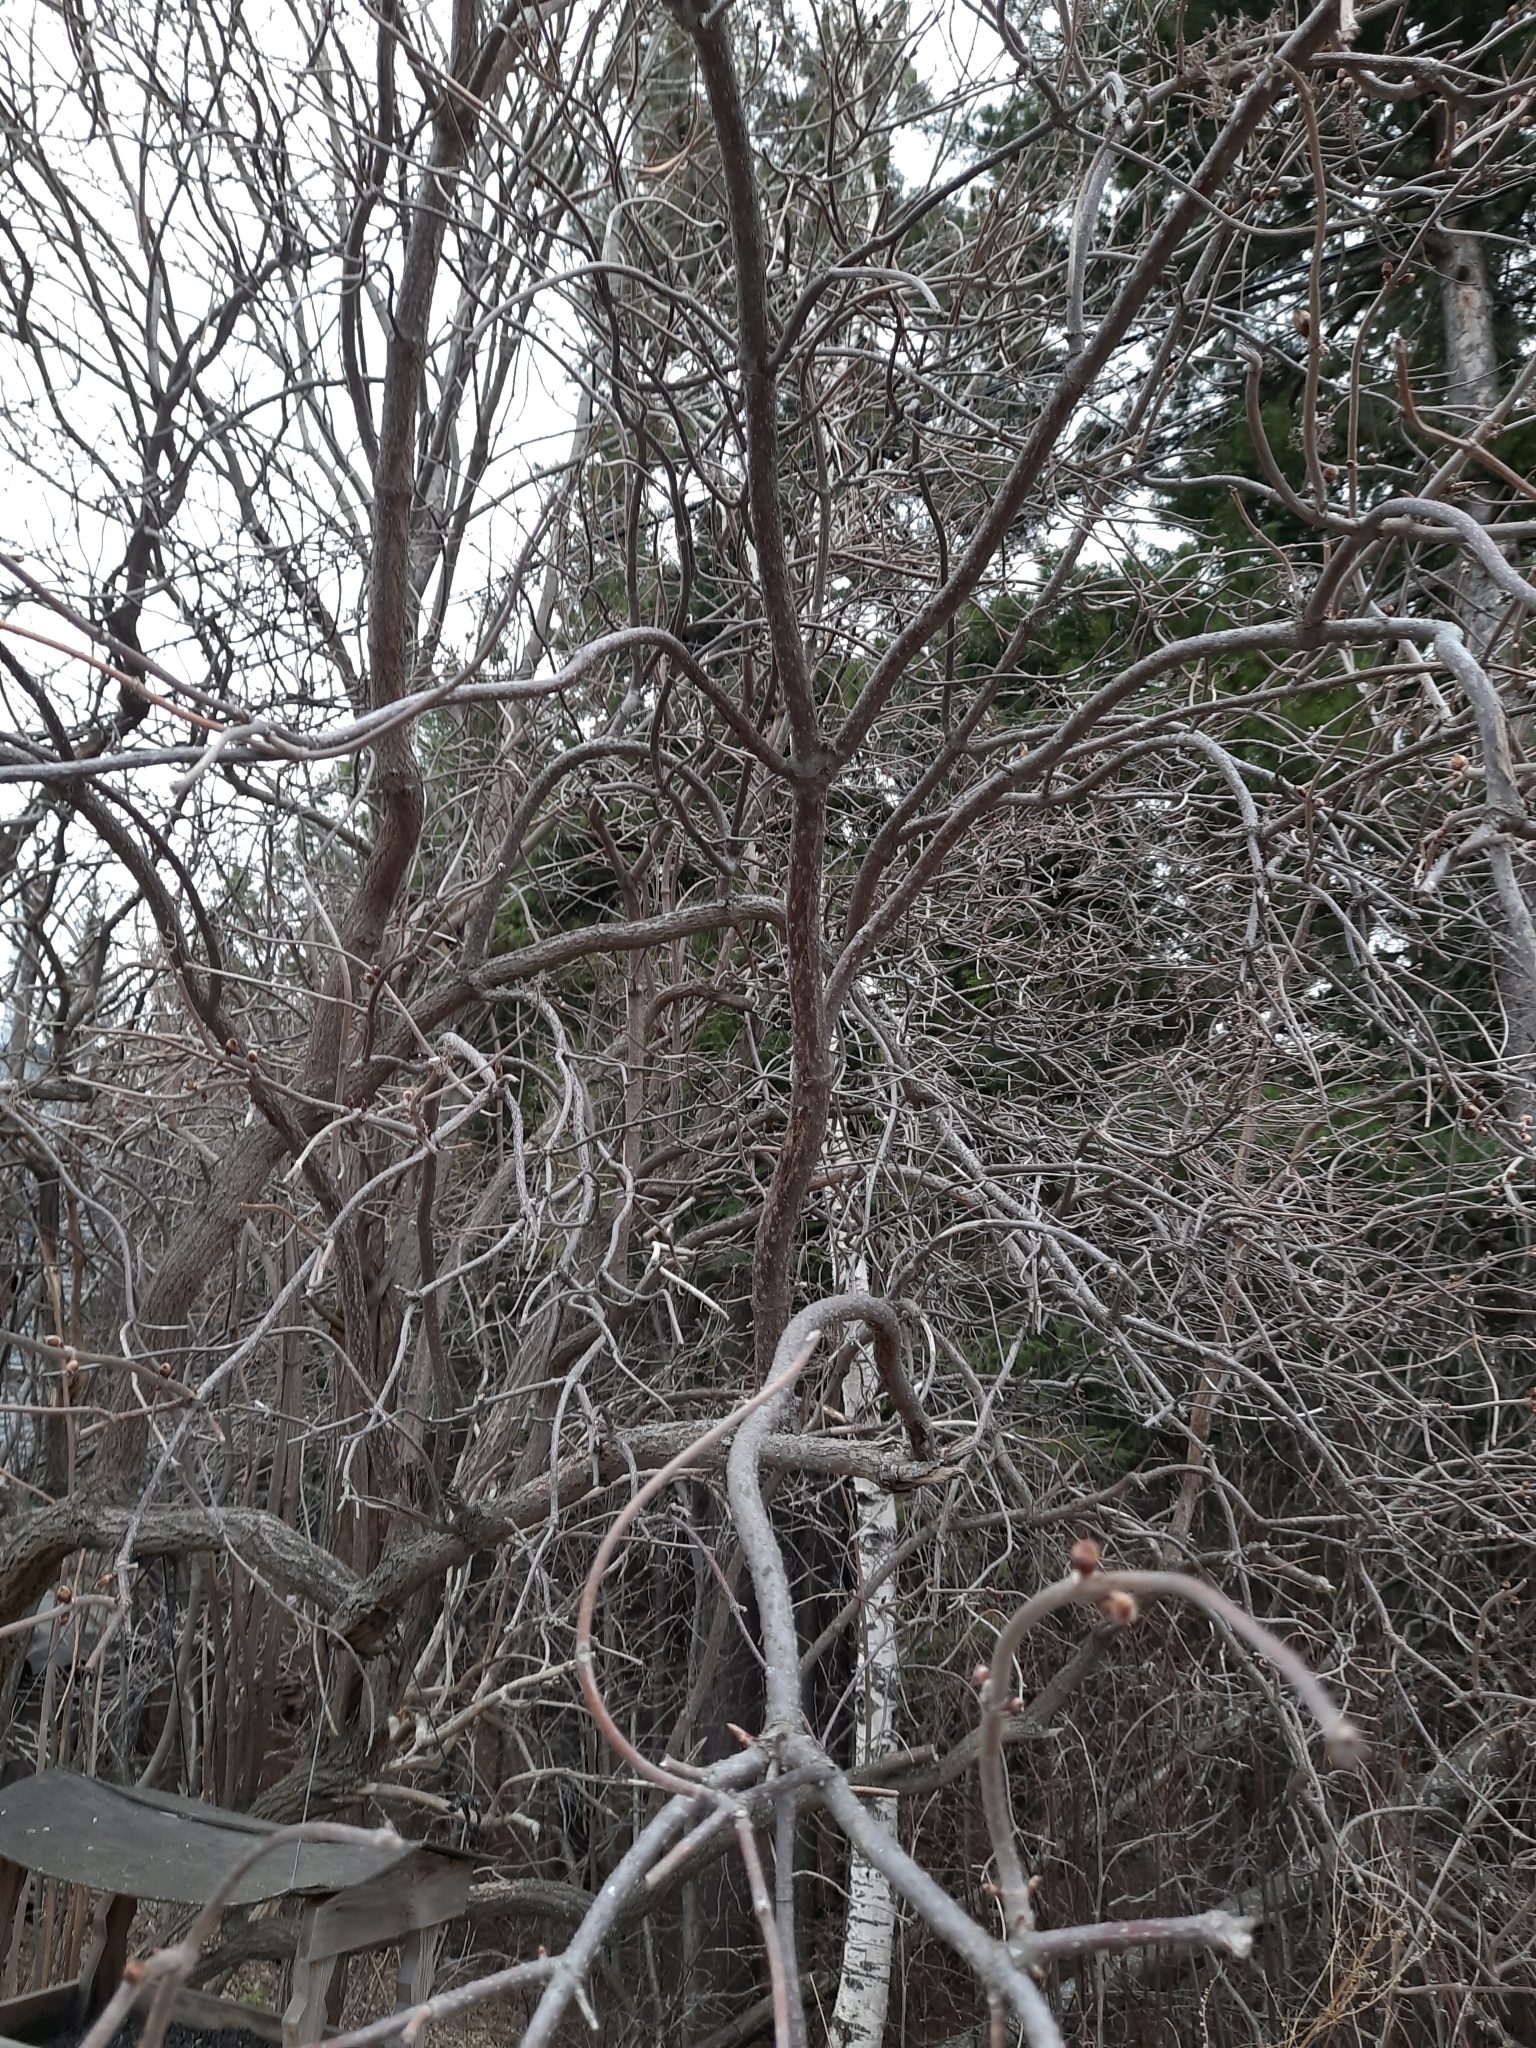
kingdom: Plantae
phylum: Tracheophyta
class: Magnoliopsida
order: Dipsacales
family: Viburnaceae
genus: Sambucus
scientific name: Sambucus sibirica
